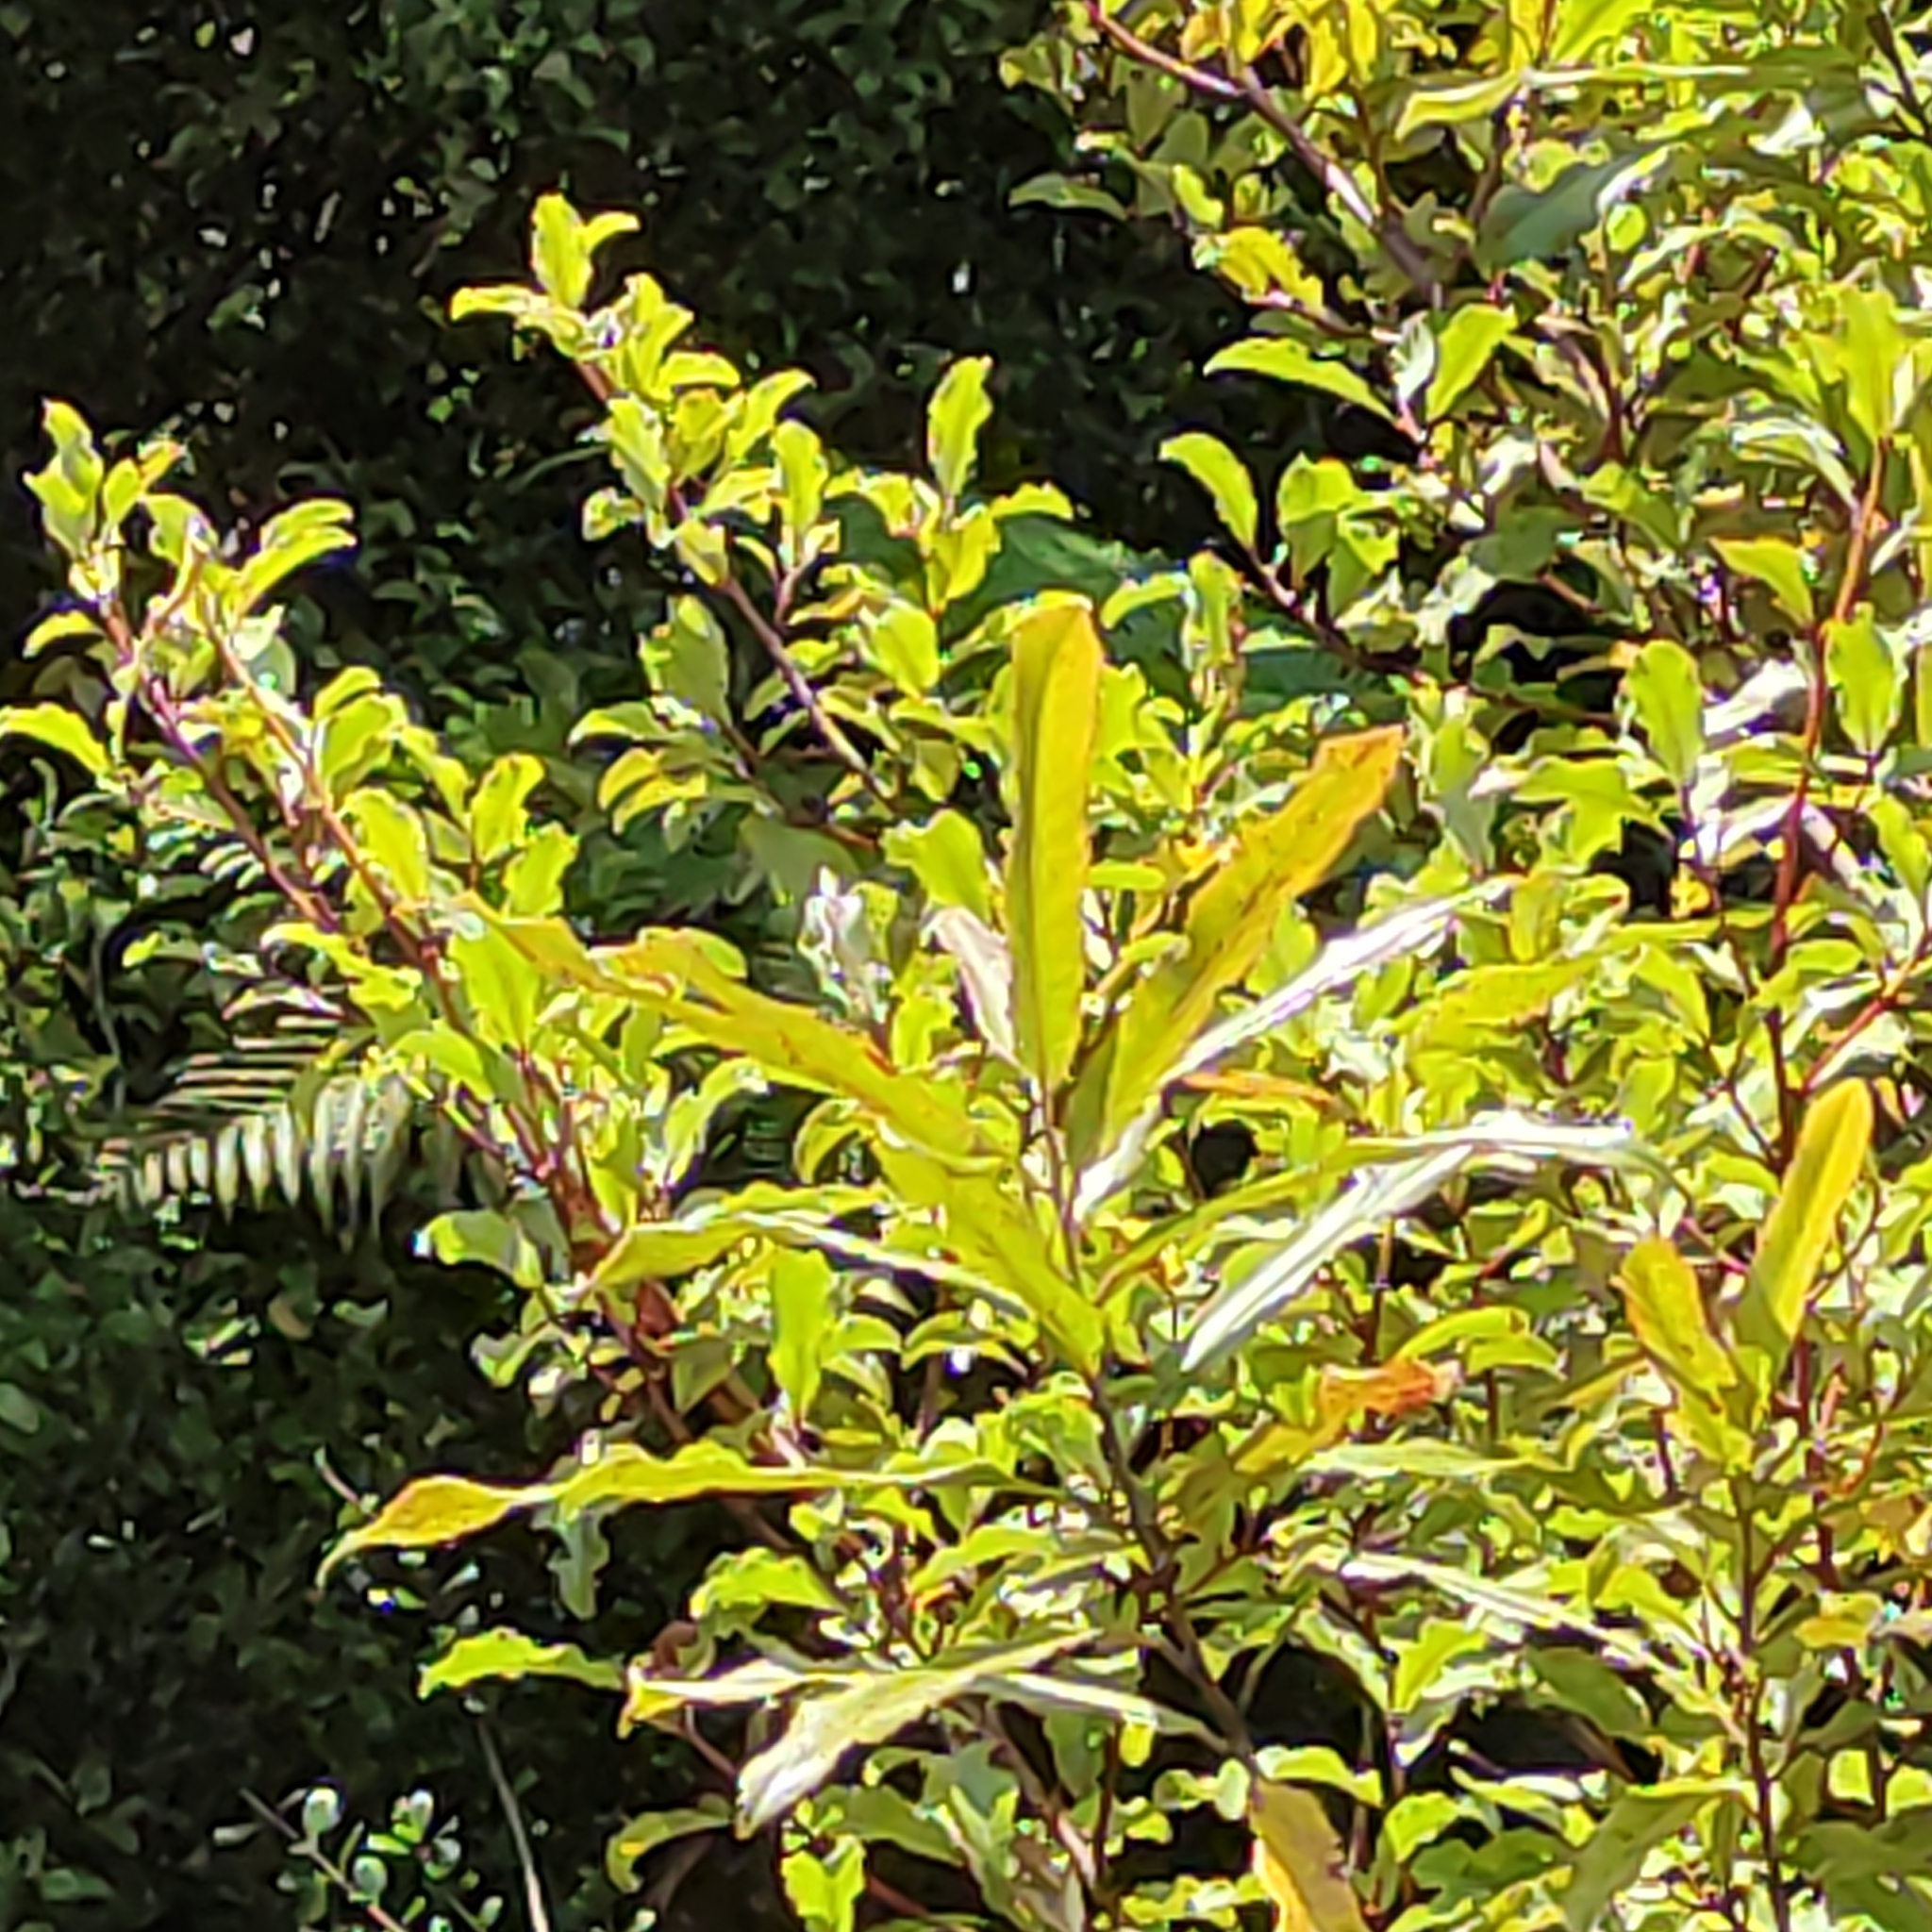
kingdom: Plantae
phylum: Tracheophyta
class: Magnoliopsida
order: Paracryphiales
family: Paracryphiaceae
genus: Quintinia
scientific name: Quintinia serrata
